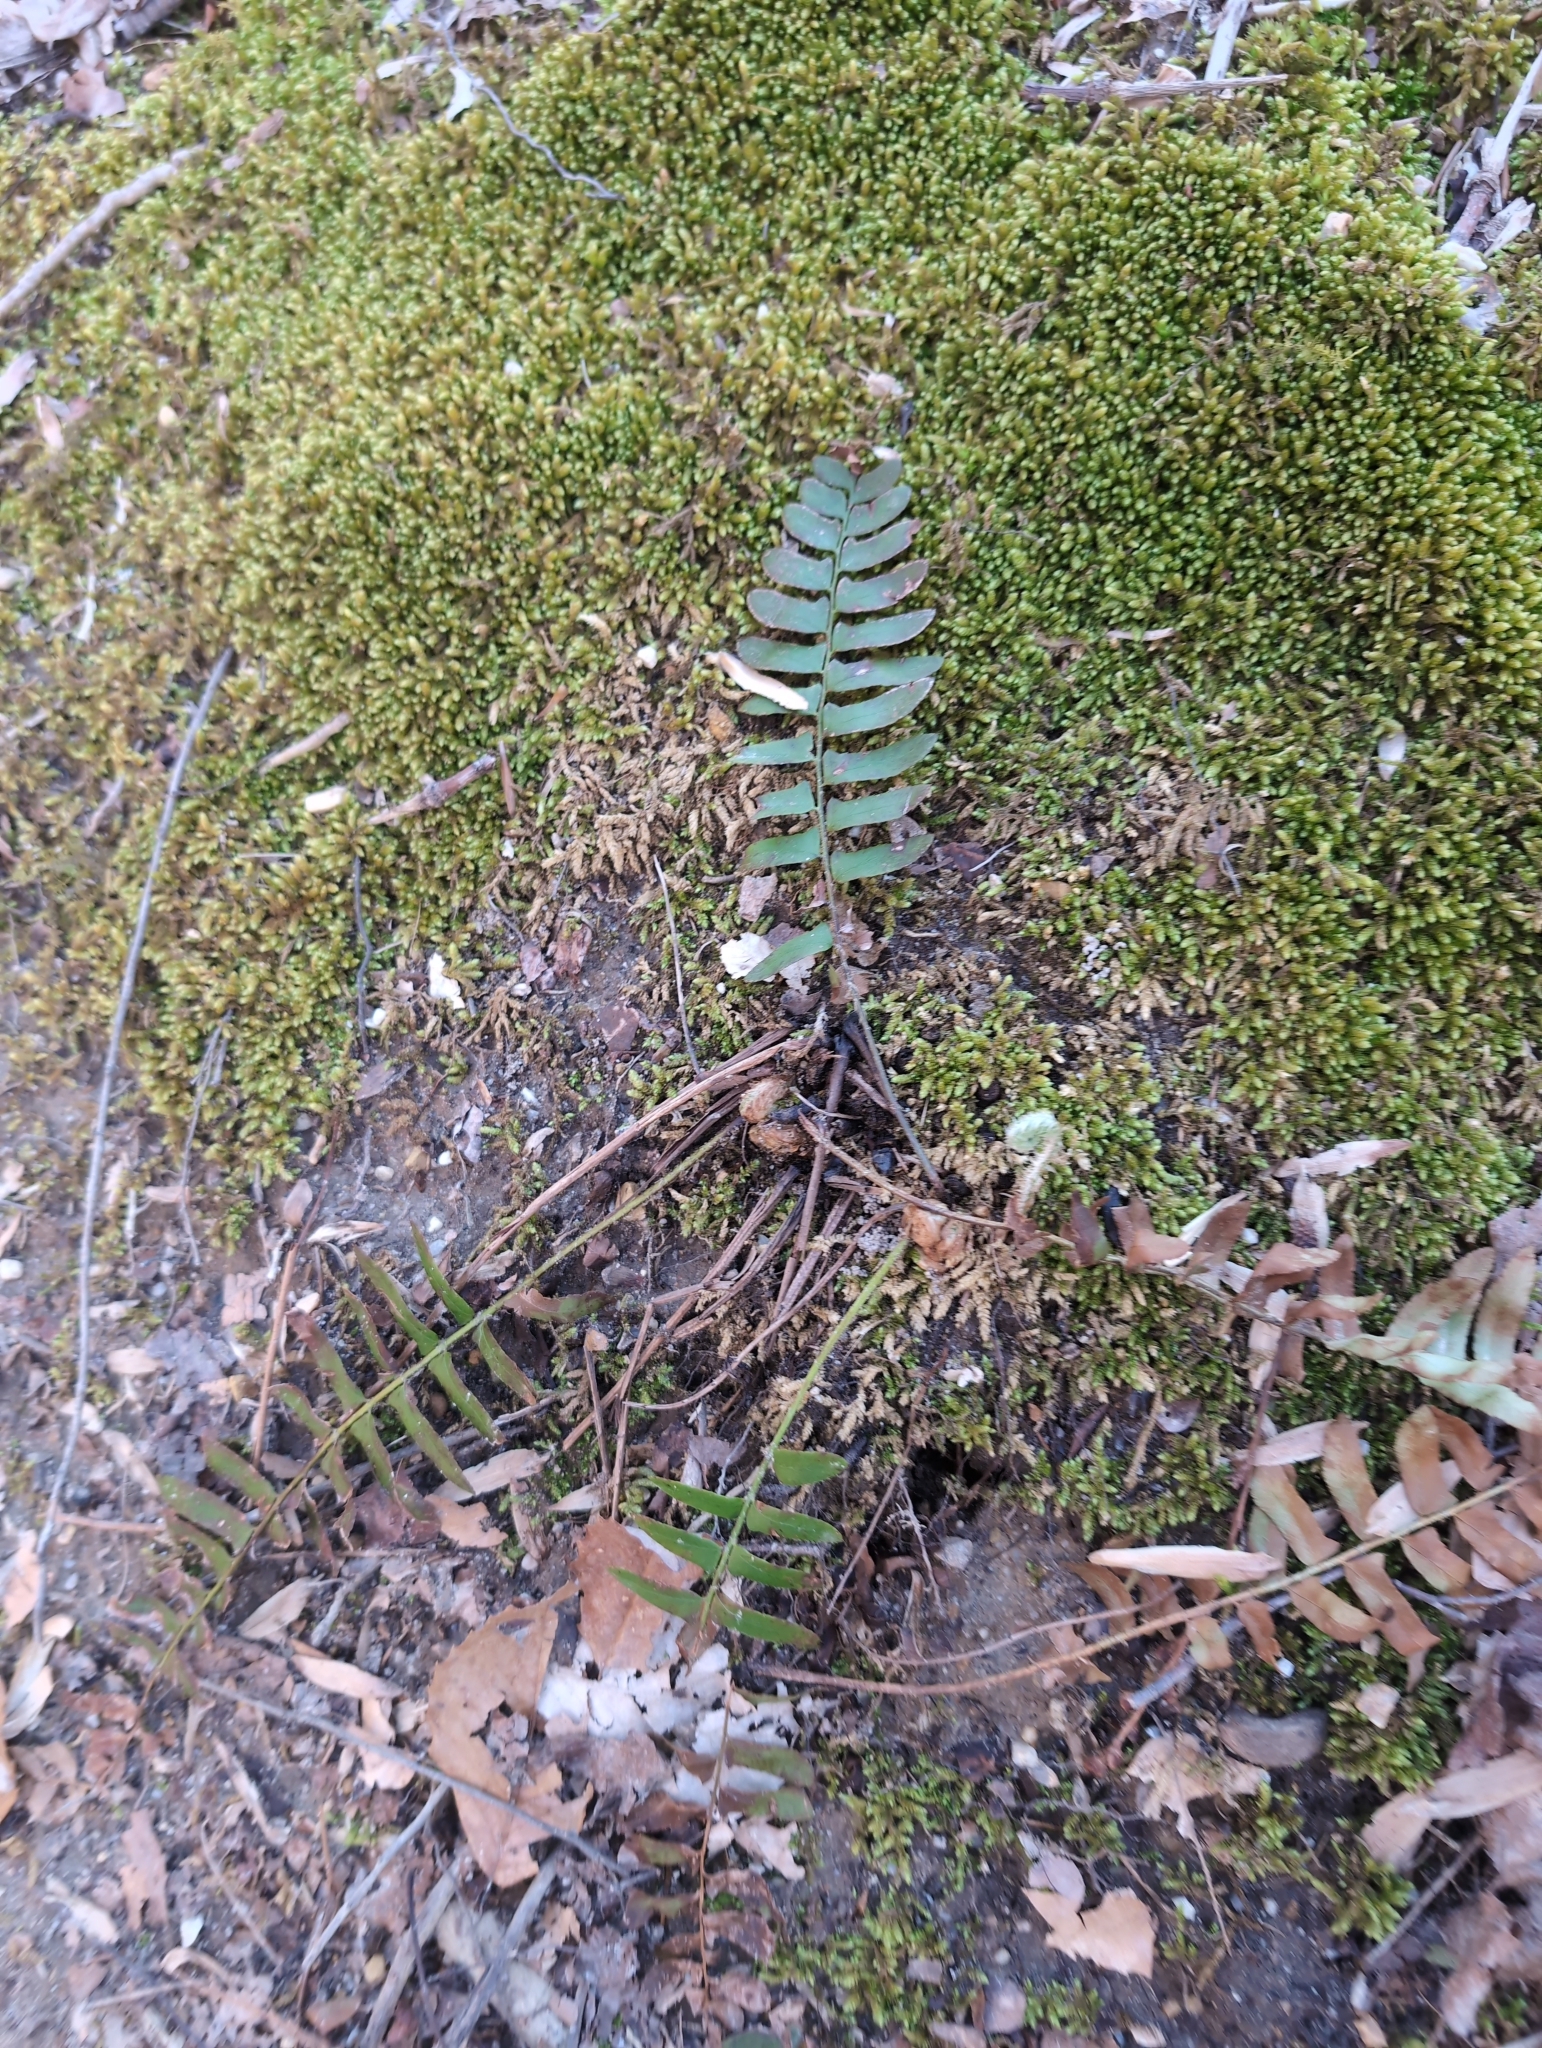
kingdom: Plantae
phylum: Tracheophyta
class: Polypodiopsida
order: Polypodiales
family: Dryopteridaceae
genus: Polystichum
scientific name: Polystichum acrostichoides
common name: Christmas fern
